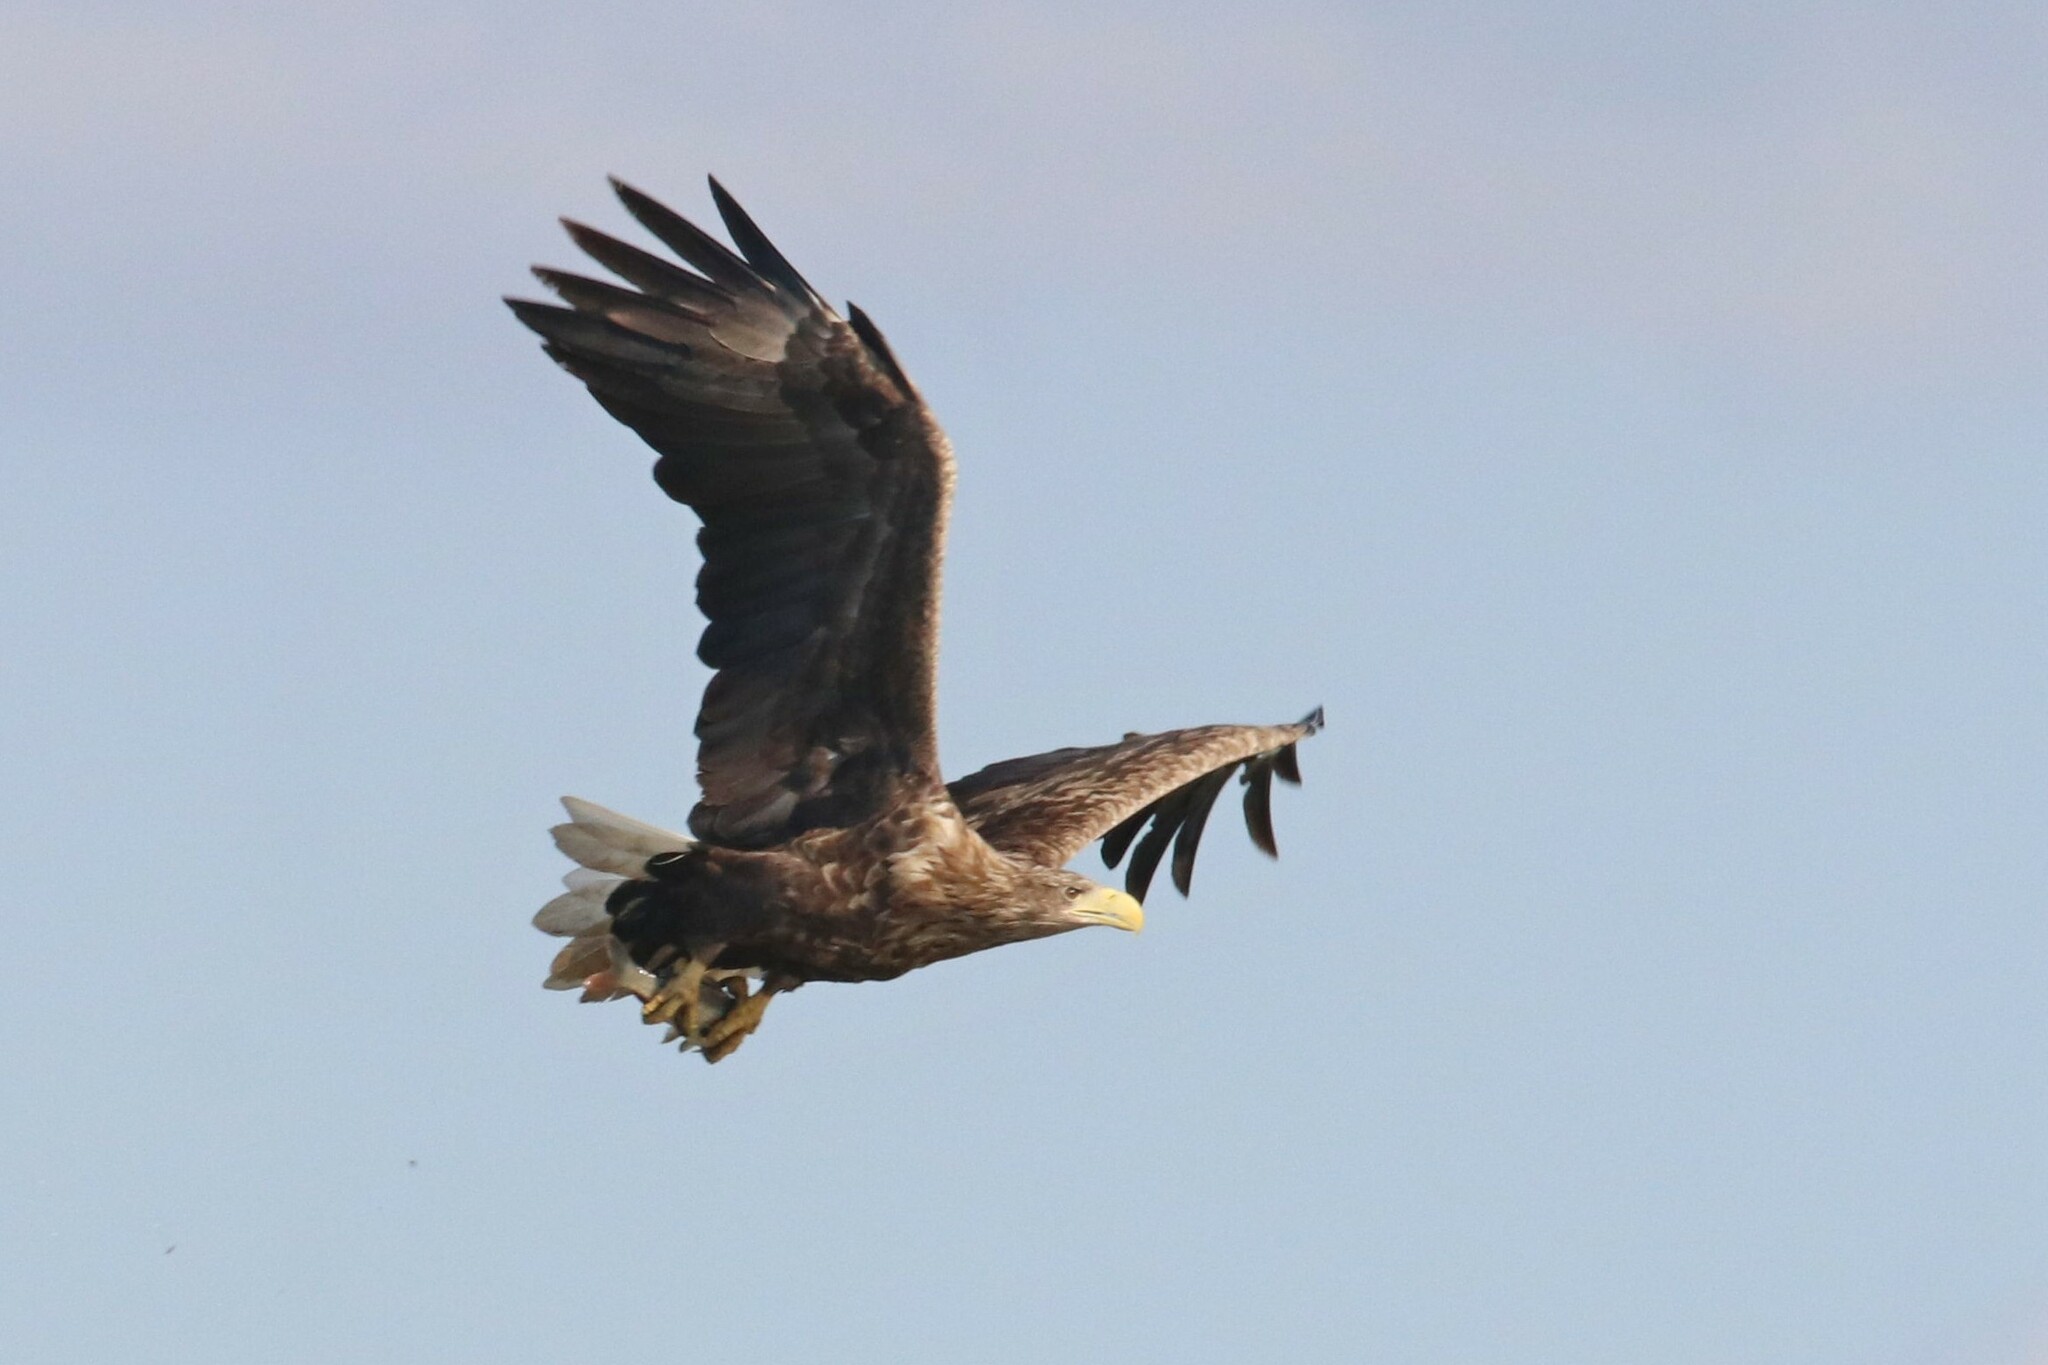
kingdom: Animalia
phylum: Chordata
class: Aves
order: Accipitriformes
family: Accipitridae
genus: Haliaeetus
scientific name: Haliaeetus albicilla
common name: White-tailed eagle
